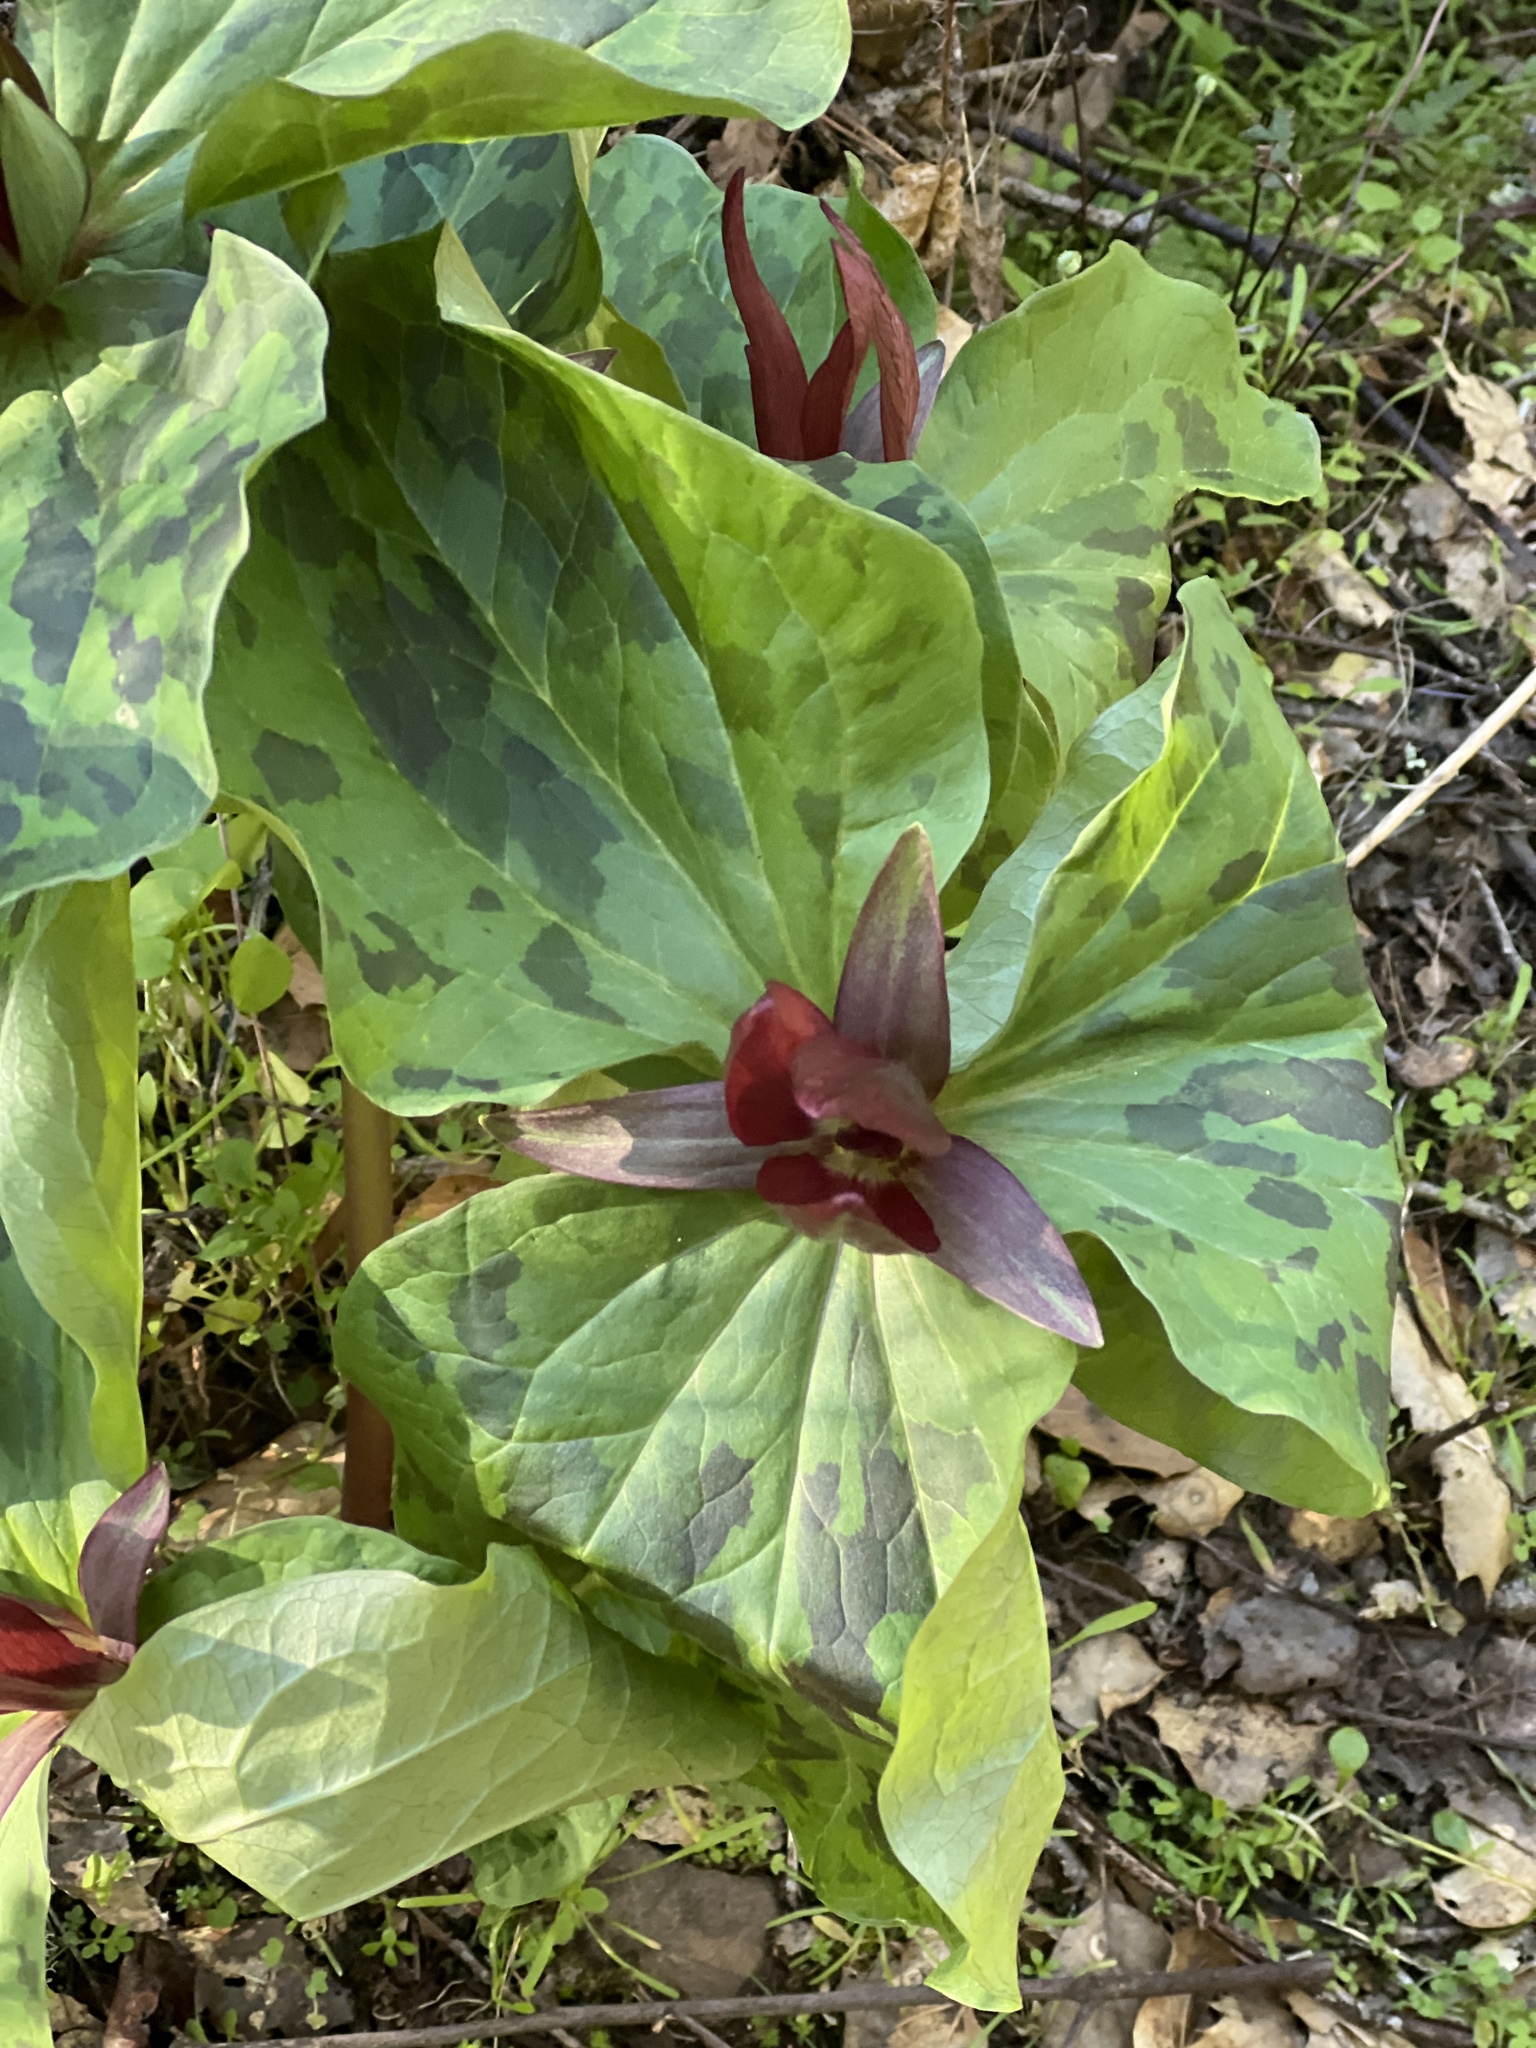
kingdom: Plantae
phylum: Tracheophyta
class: Liliopsida
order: Liliales
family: Melanthiaceae
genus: Trillium
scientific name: Trillium chloropetalum
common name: Giant trillium
